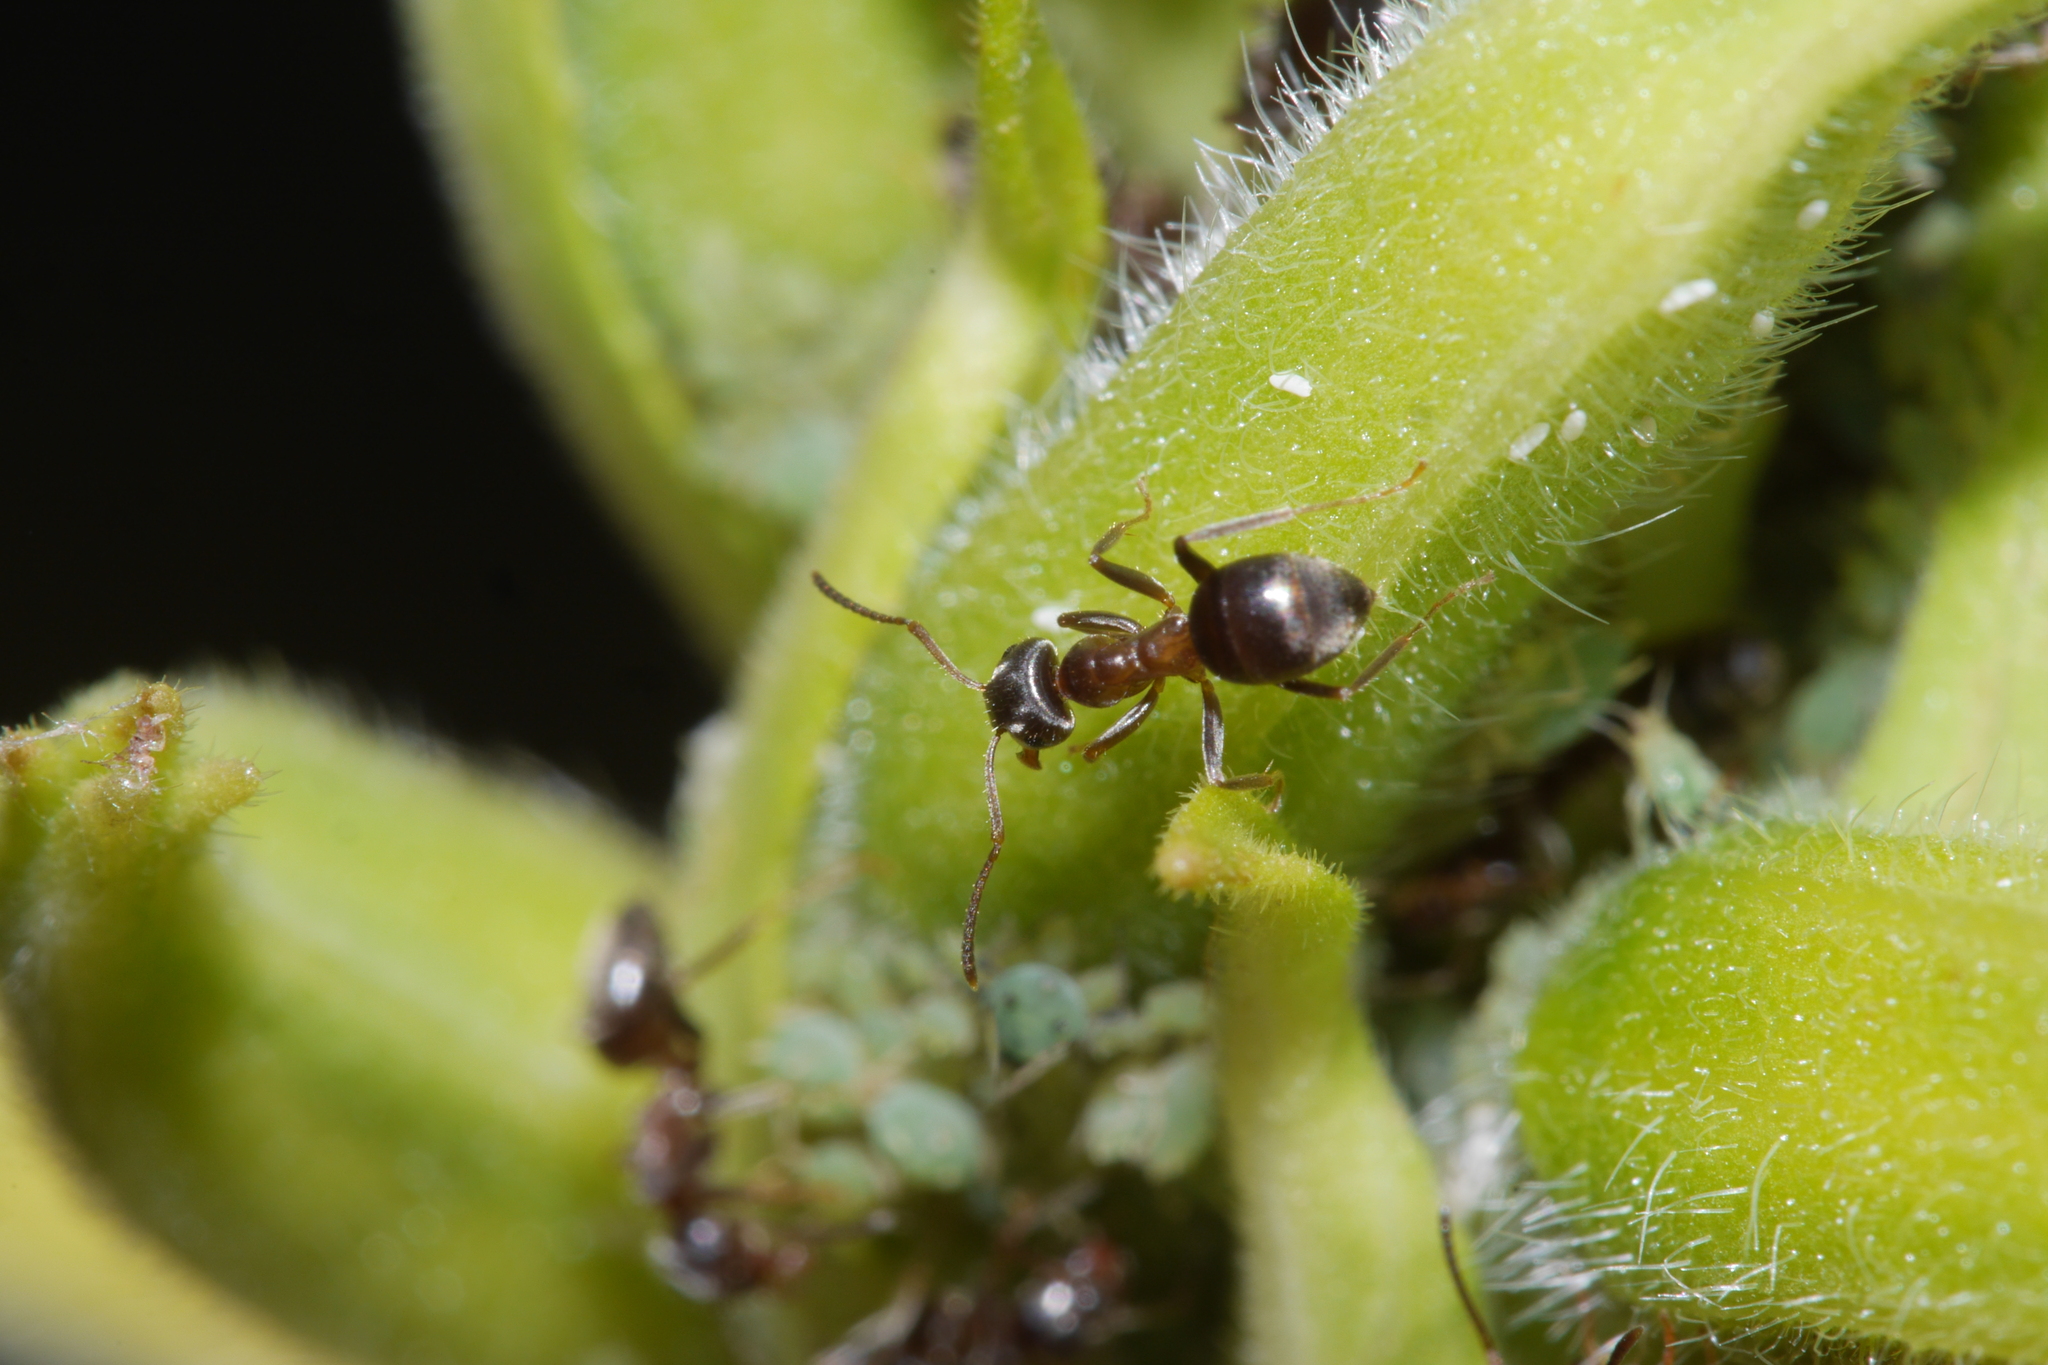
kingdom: Animalia
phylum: Arthropoda
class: Insecta
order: Hymenoptera
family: Formicidae
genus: Lasius
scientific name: Lasius niger
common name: Small black ant
